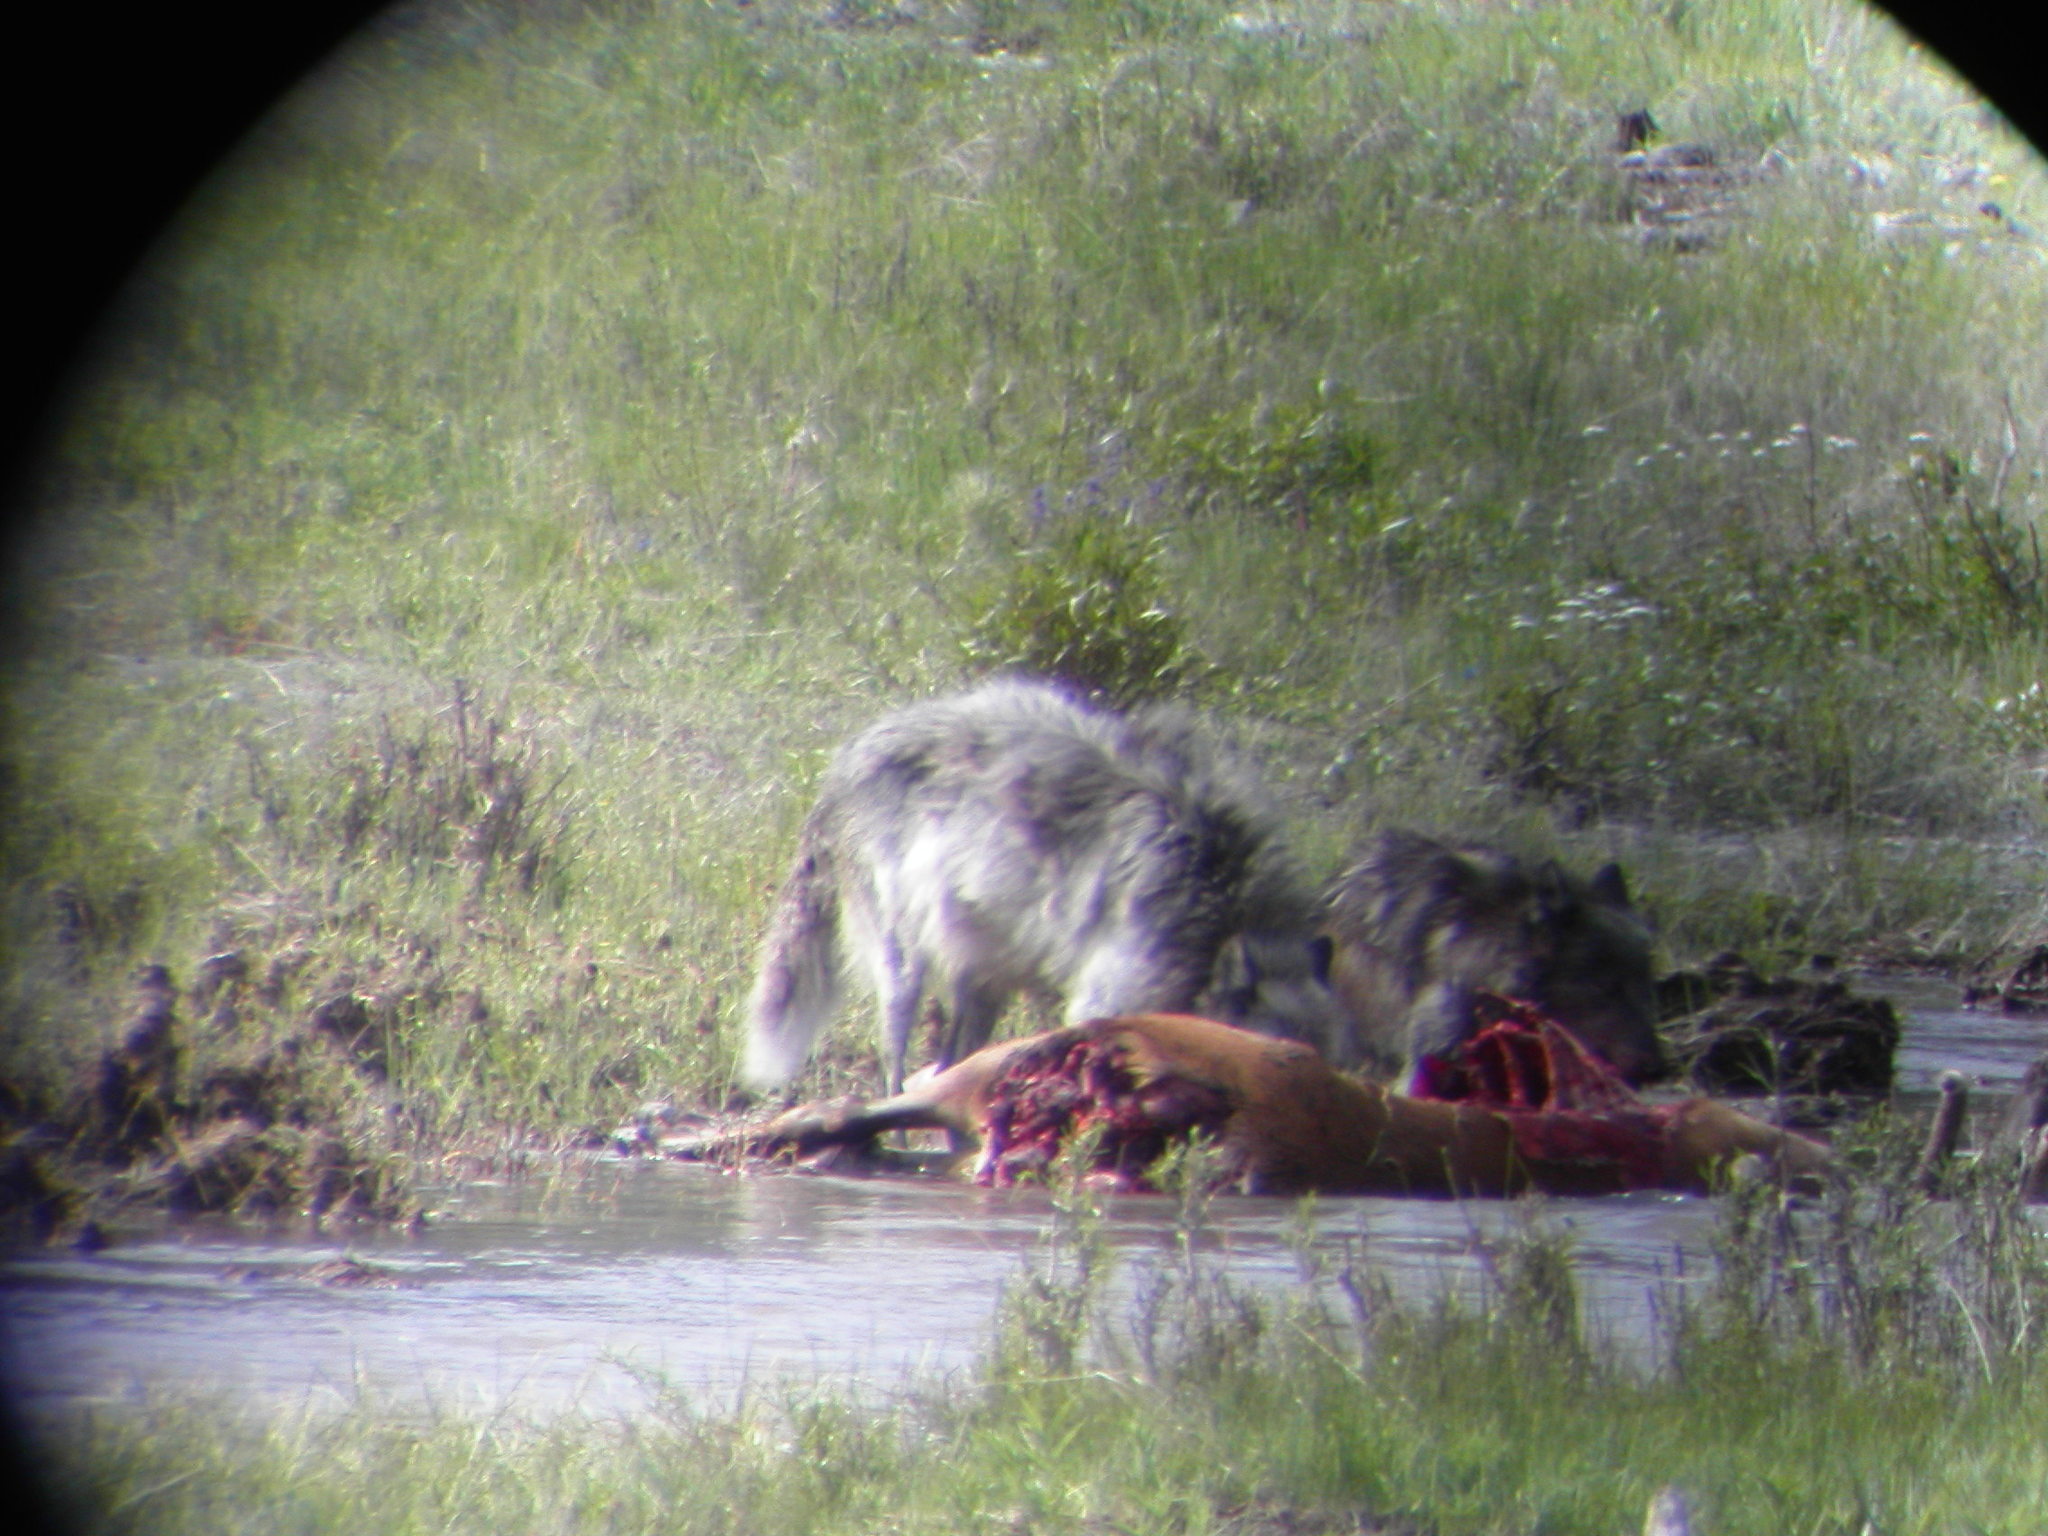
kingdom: Animalia
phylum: Chordata
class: Mammalia
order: Carnivora
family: Canidae
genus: Canis
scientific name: Canis lupus
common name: Gray wolf
